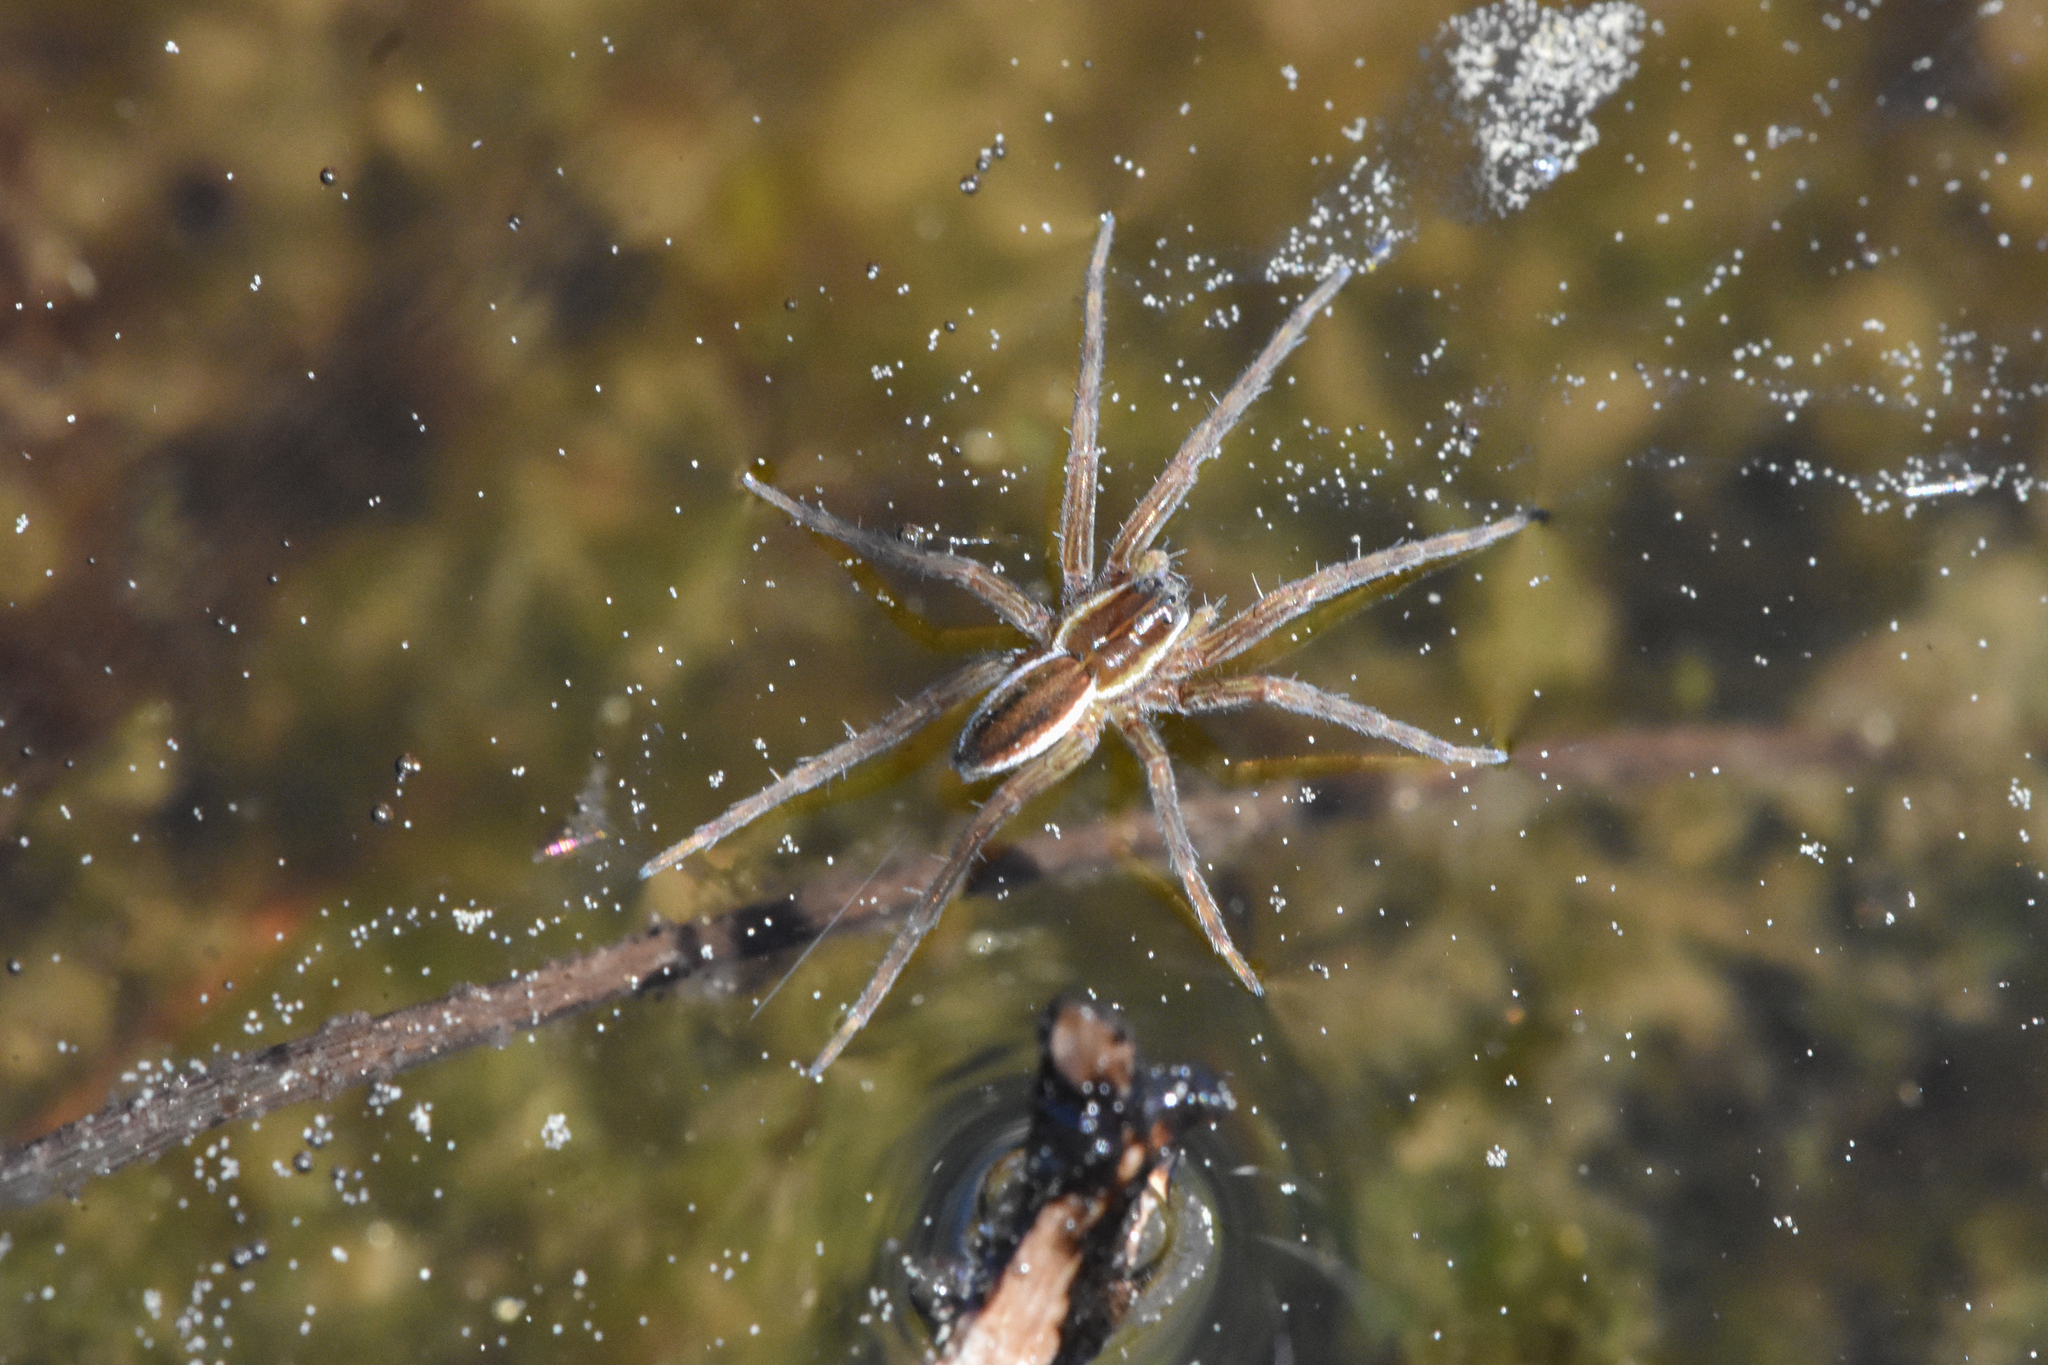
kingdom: Animalia
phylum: Arthropoda
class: Arachnida
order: Araneae
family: Pisauridae
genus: Dolomedes
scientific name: Dolomedes triton
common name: Six-spotted fishing spider
